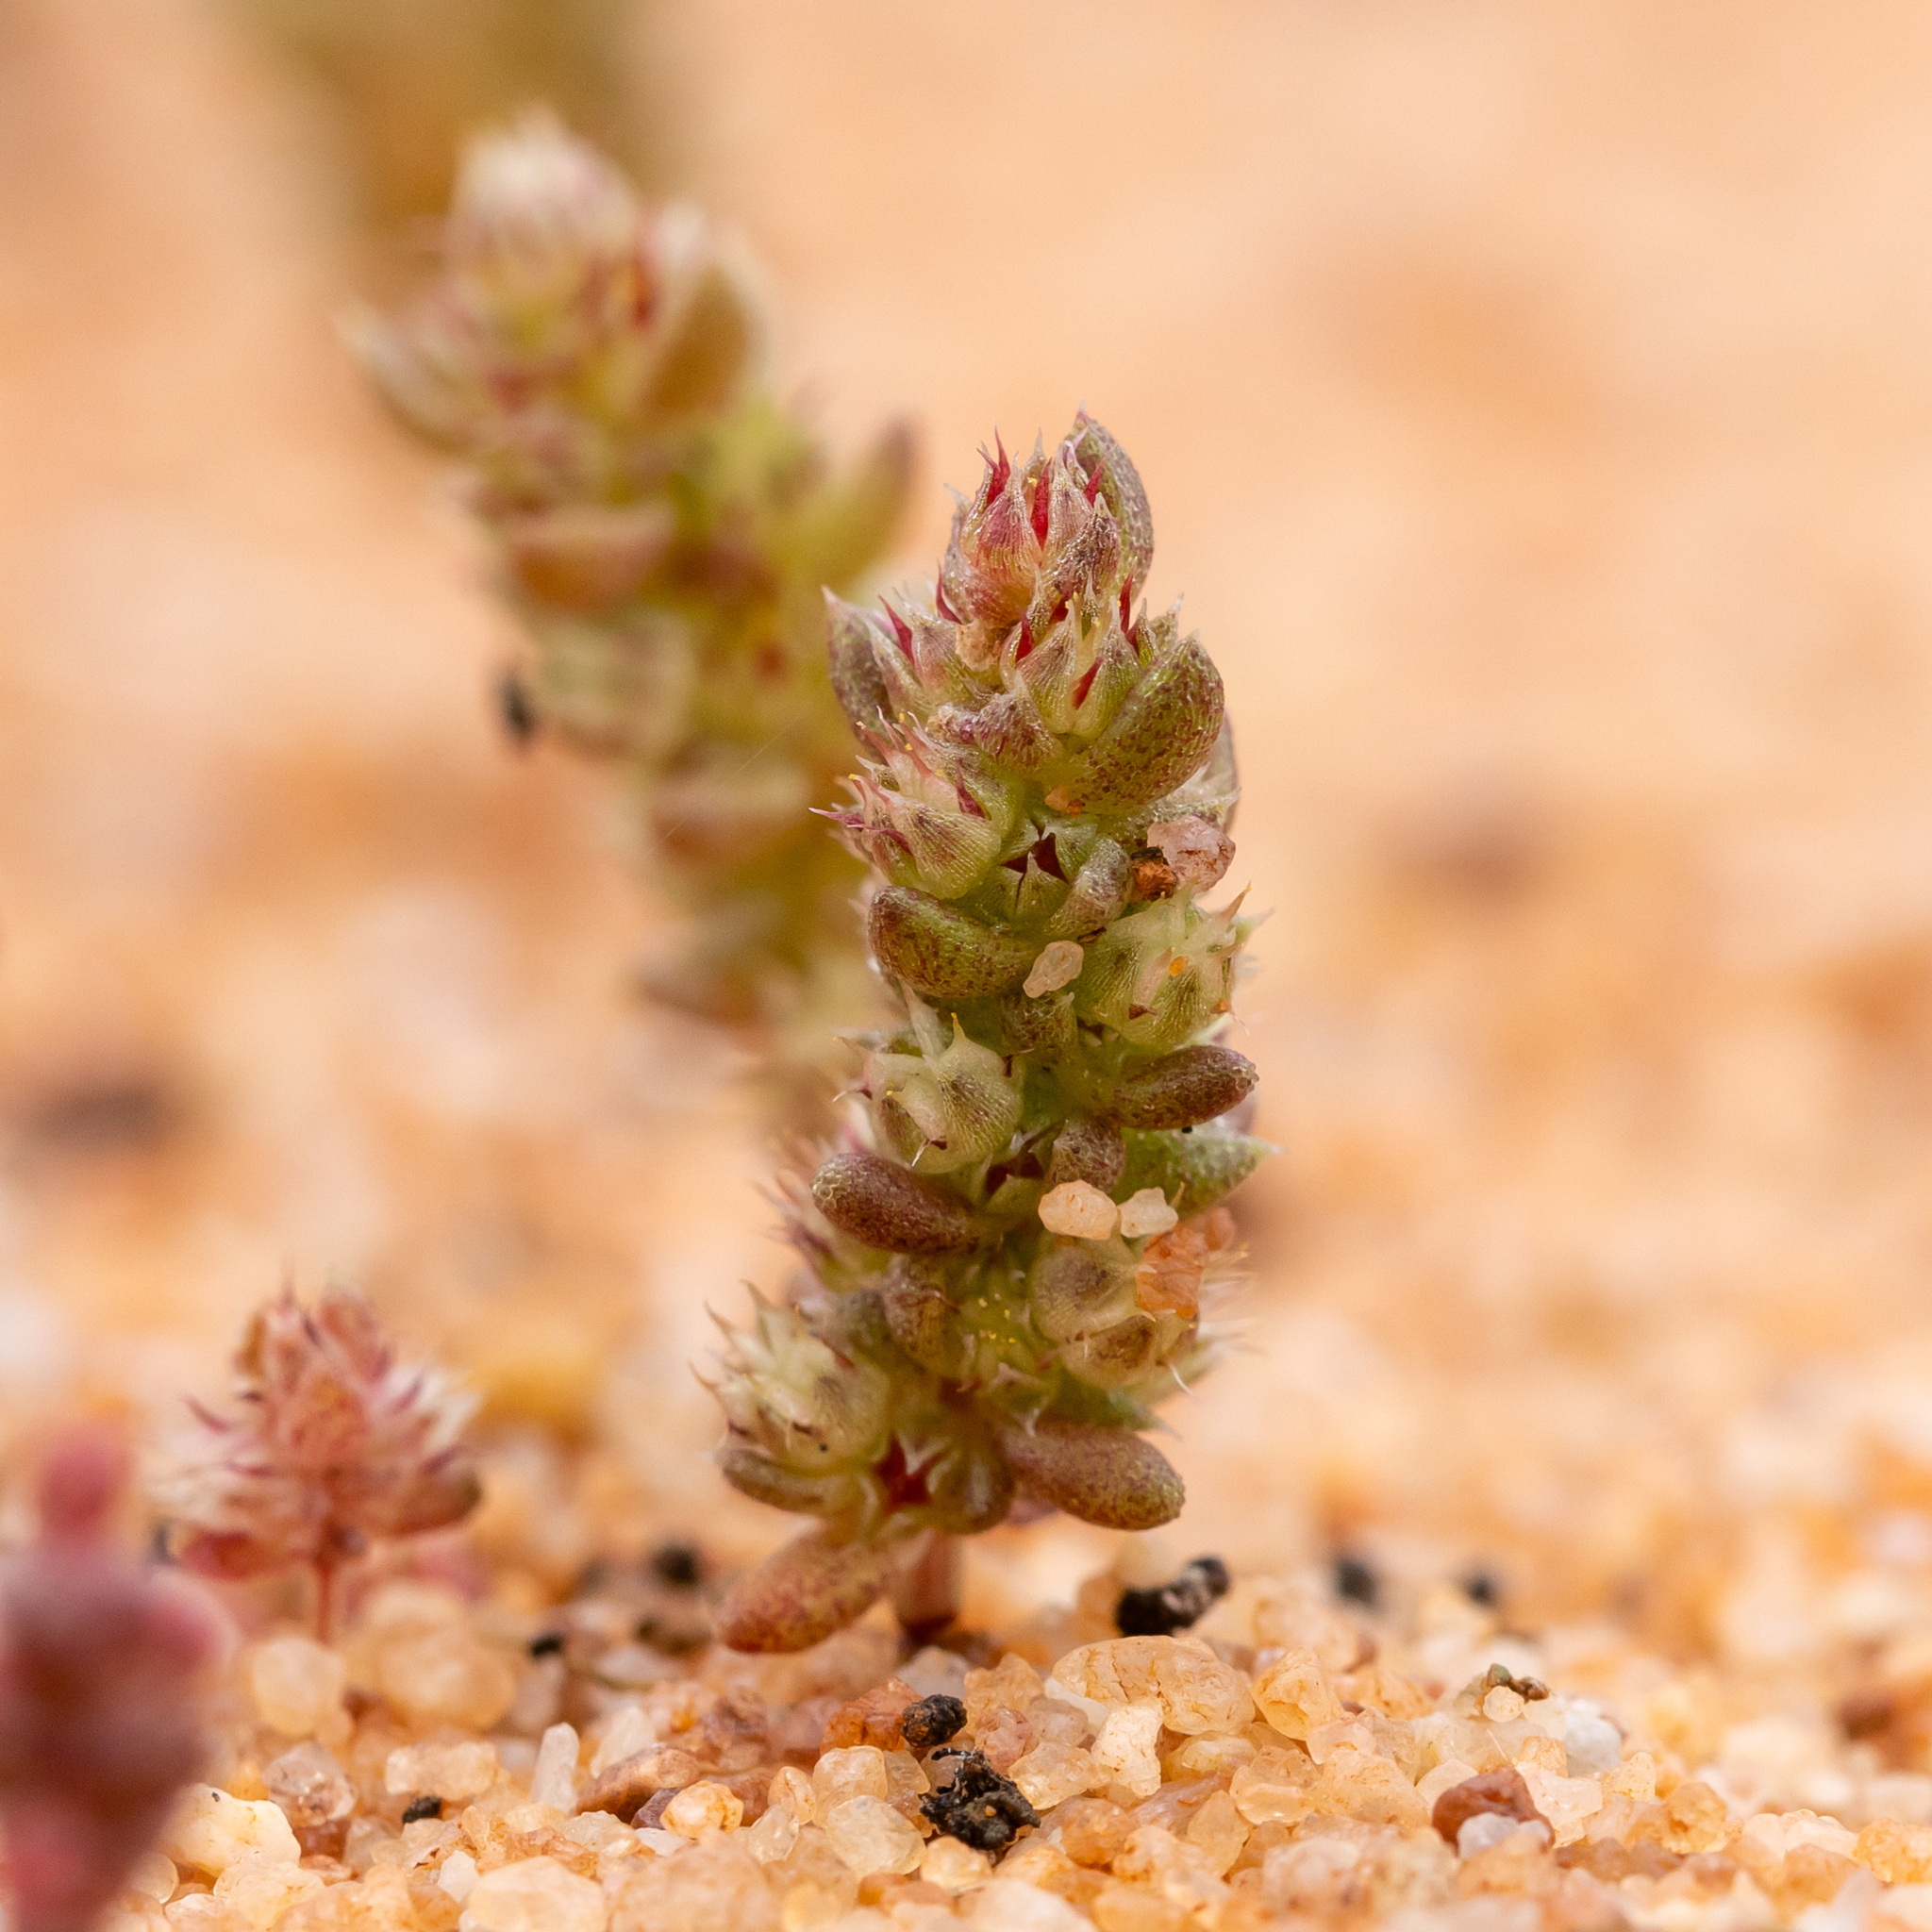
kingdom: Plantae
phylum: Tracheophyta
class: Magnoliopsida
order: Saxifragales
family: Crassulaceae
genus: Crassula
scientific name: Crassula colorata
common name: Dense pigmyweed
